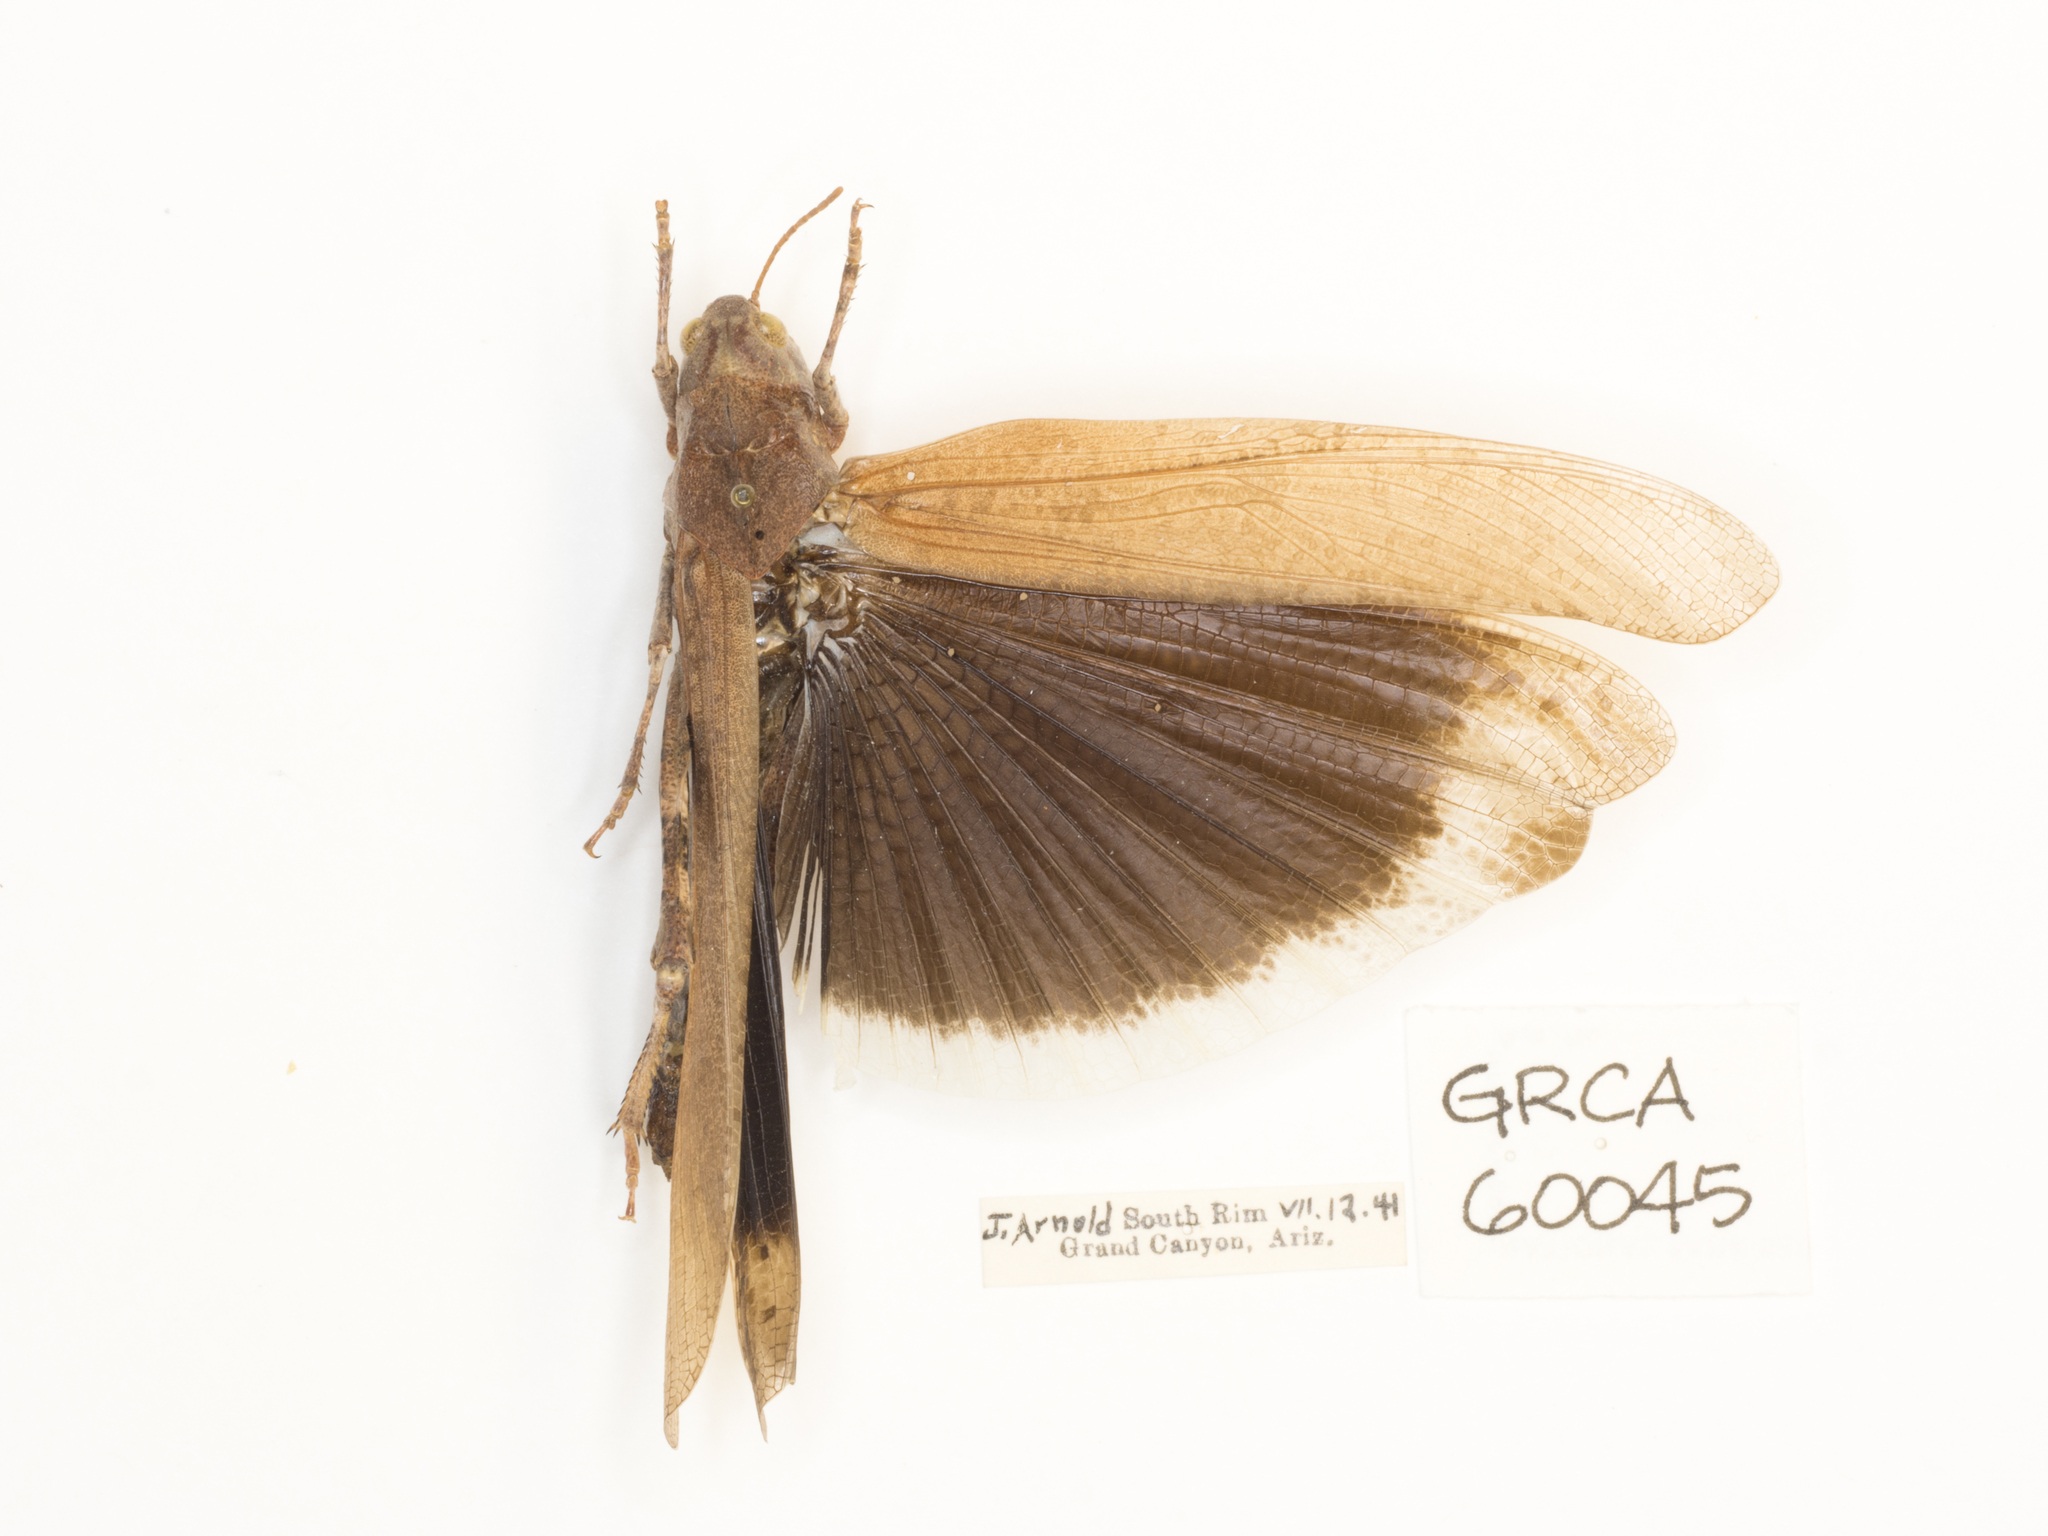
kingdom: Animalia
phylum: Arthropoda
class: Insecta
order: Orthoptera
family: Acrididae
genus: Dissosteira
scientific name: Dissosteira carolina
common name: Carolina grasshopper
